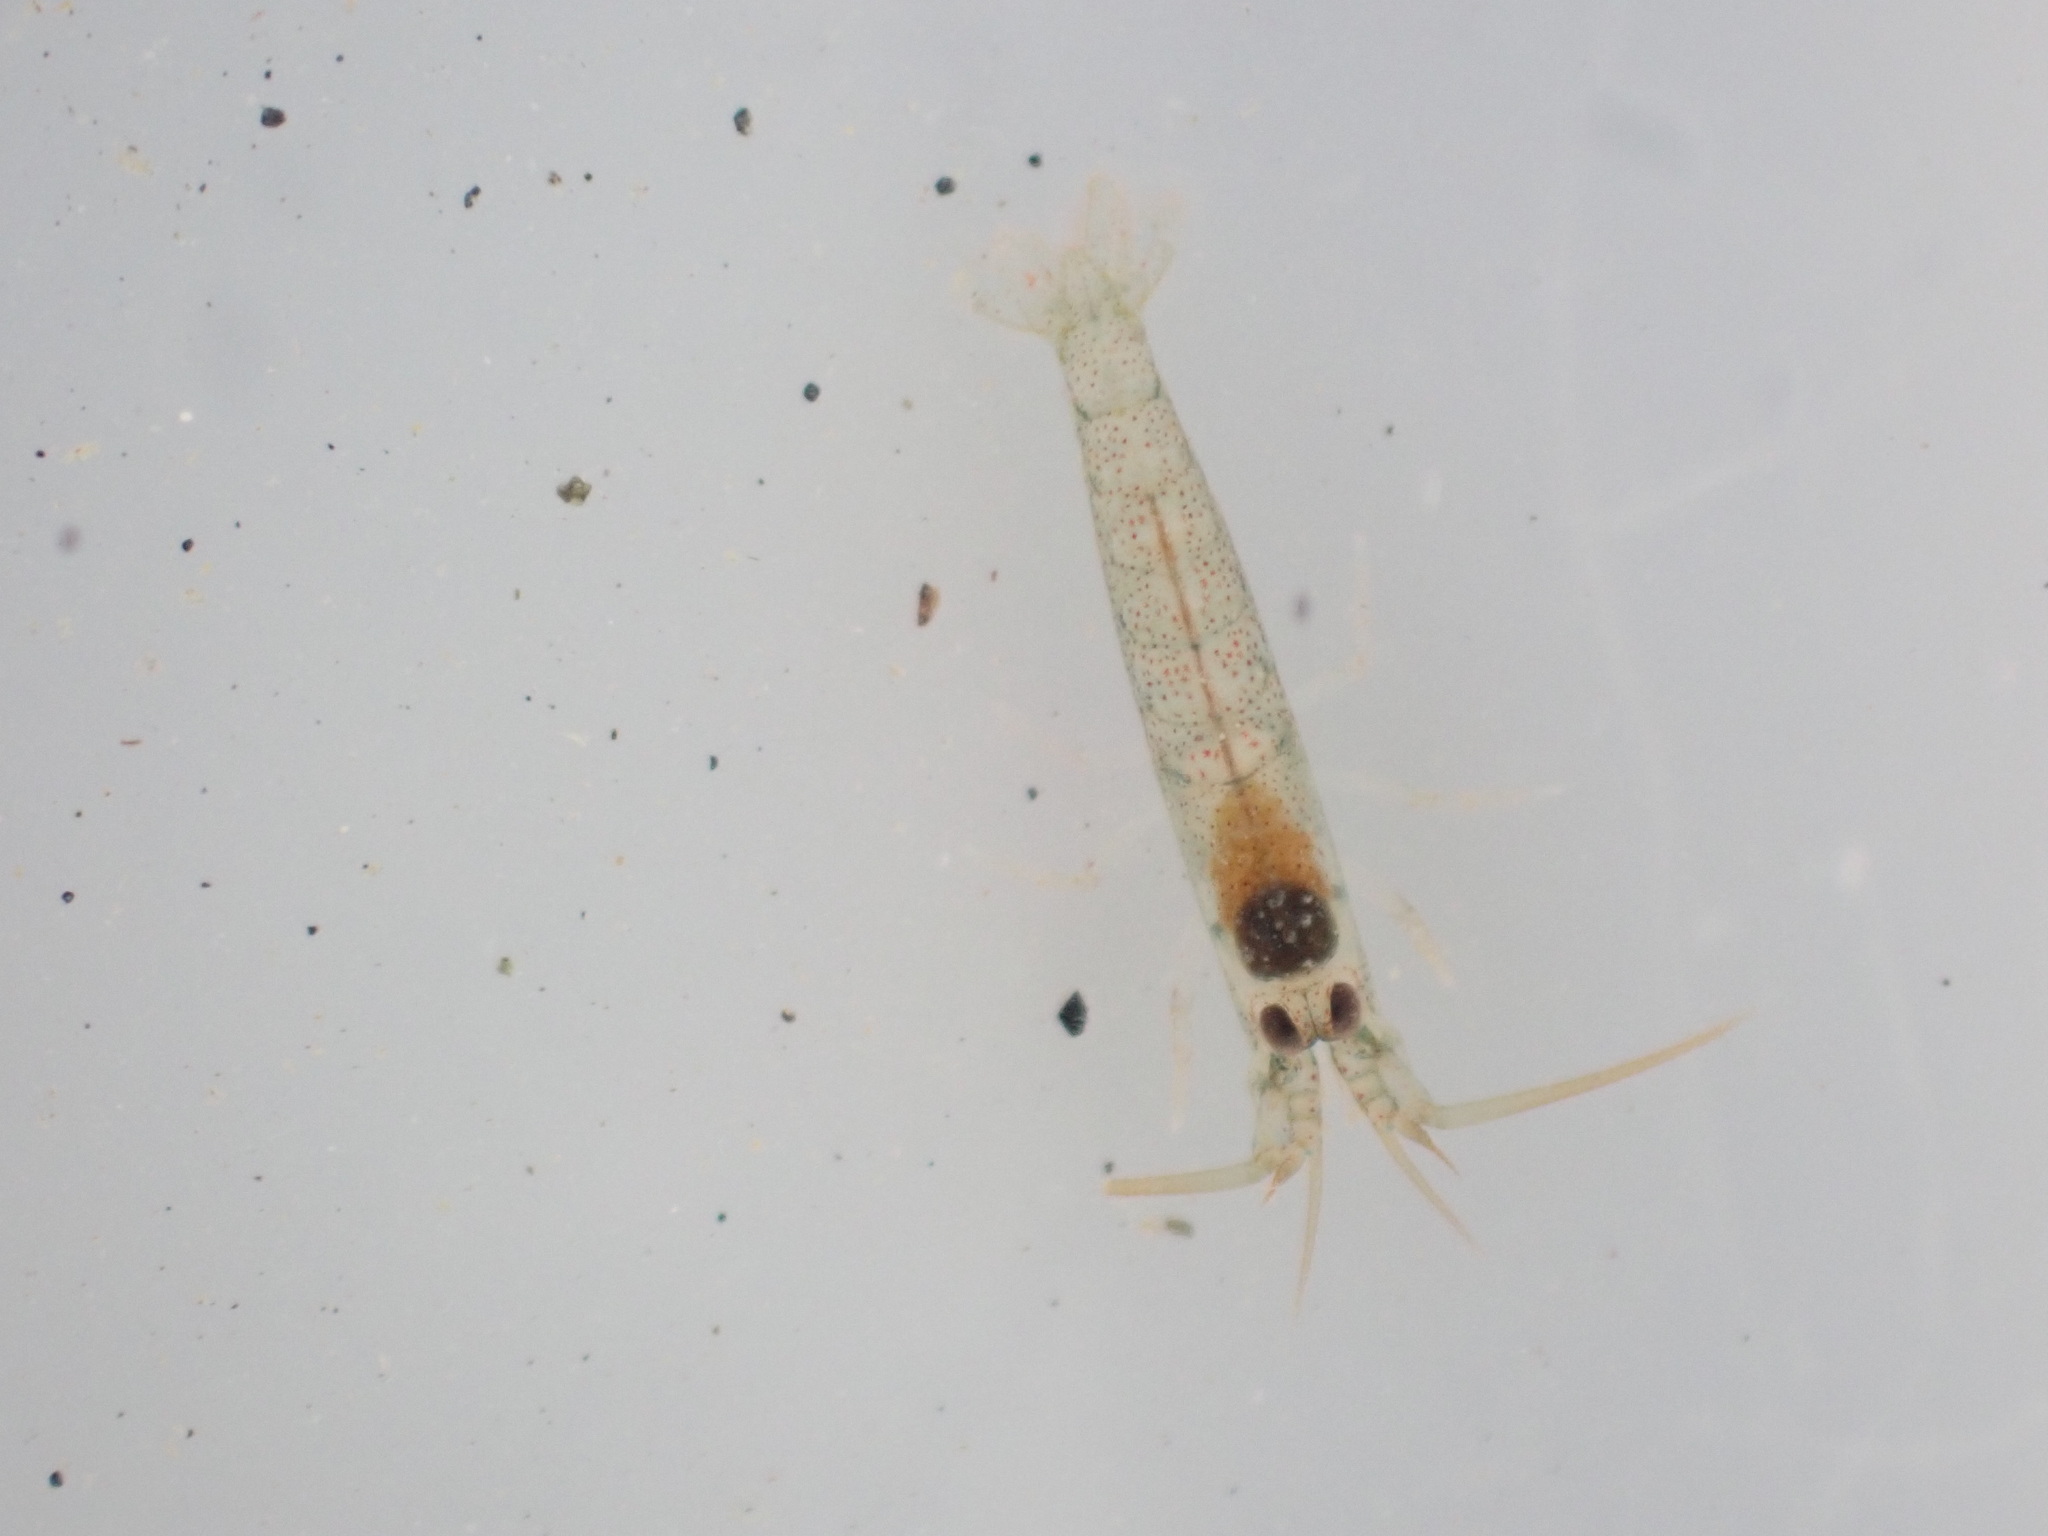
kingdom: Animalia
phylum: Arthropoda
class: Malacostraca
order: Decapoda
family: Alpheidae
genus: Betaeopsis
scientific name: Betaeopsis aequimanus
